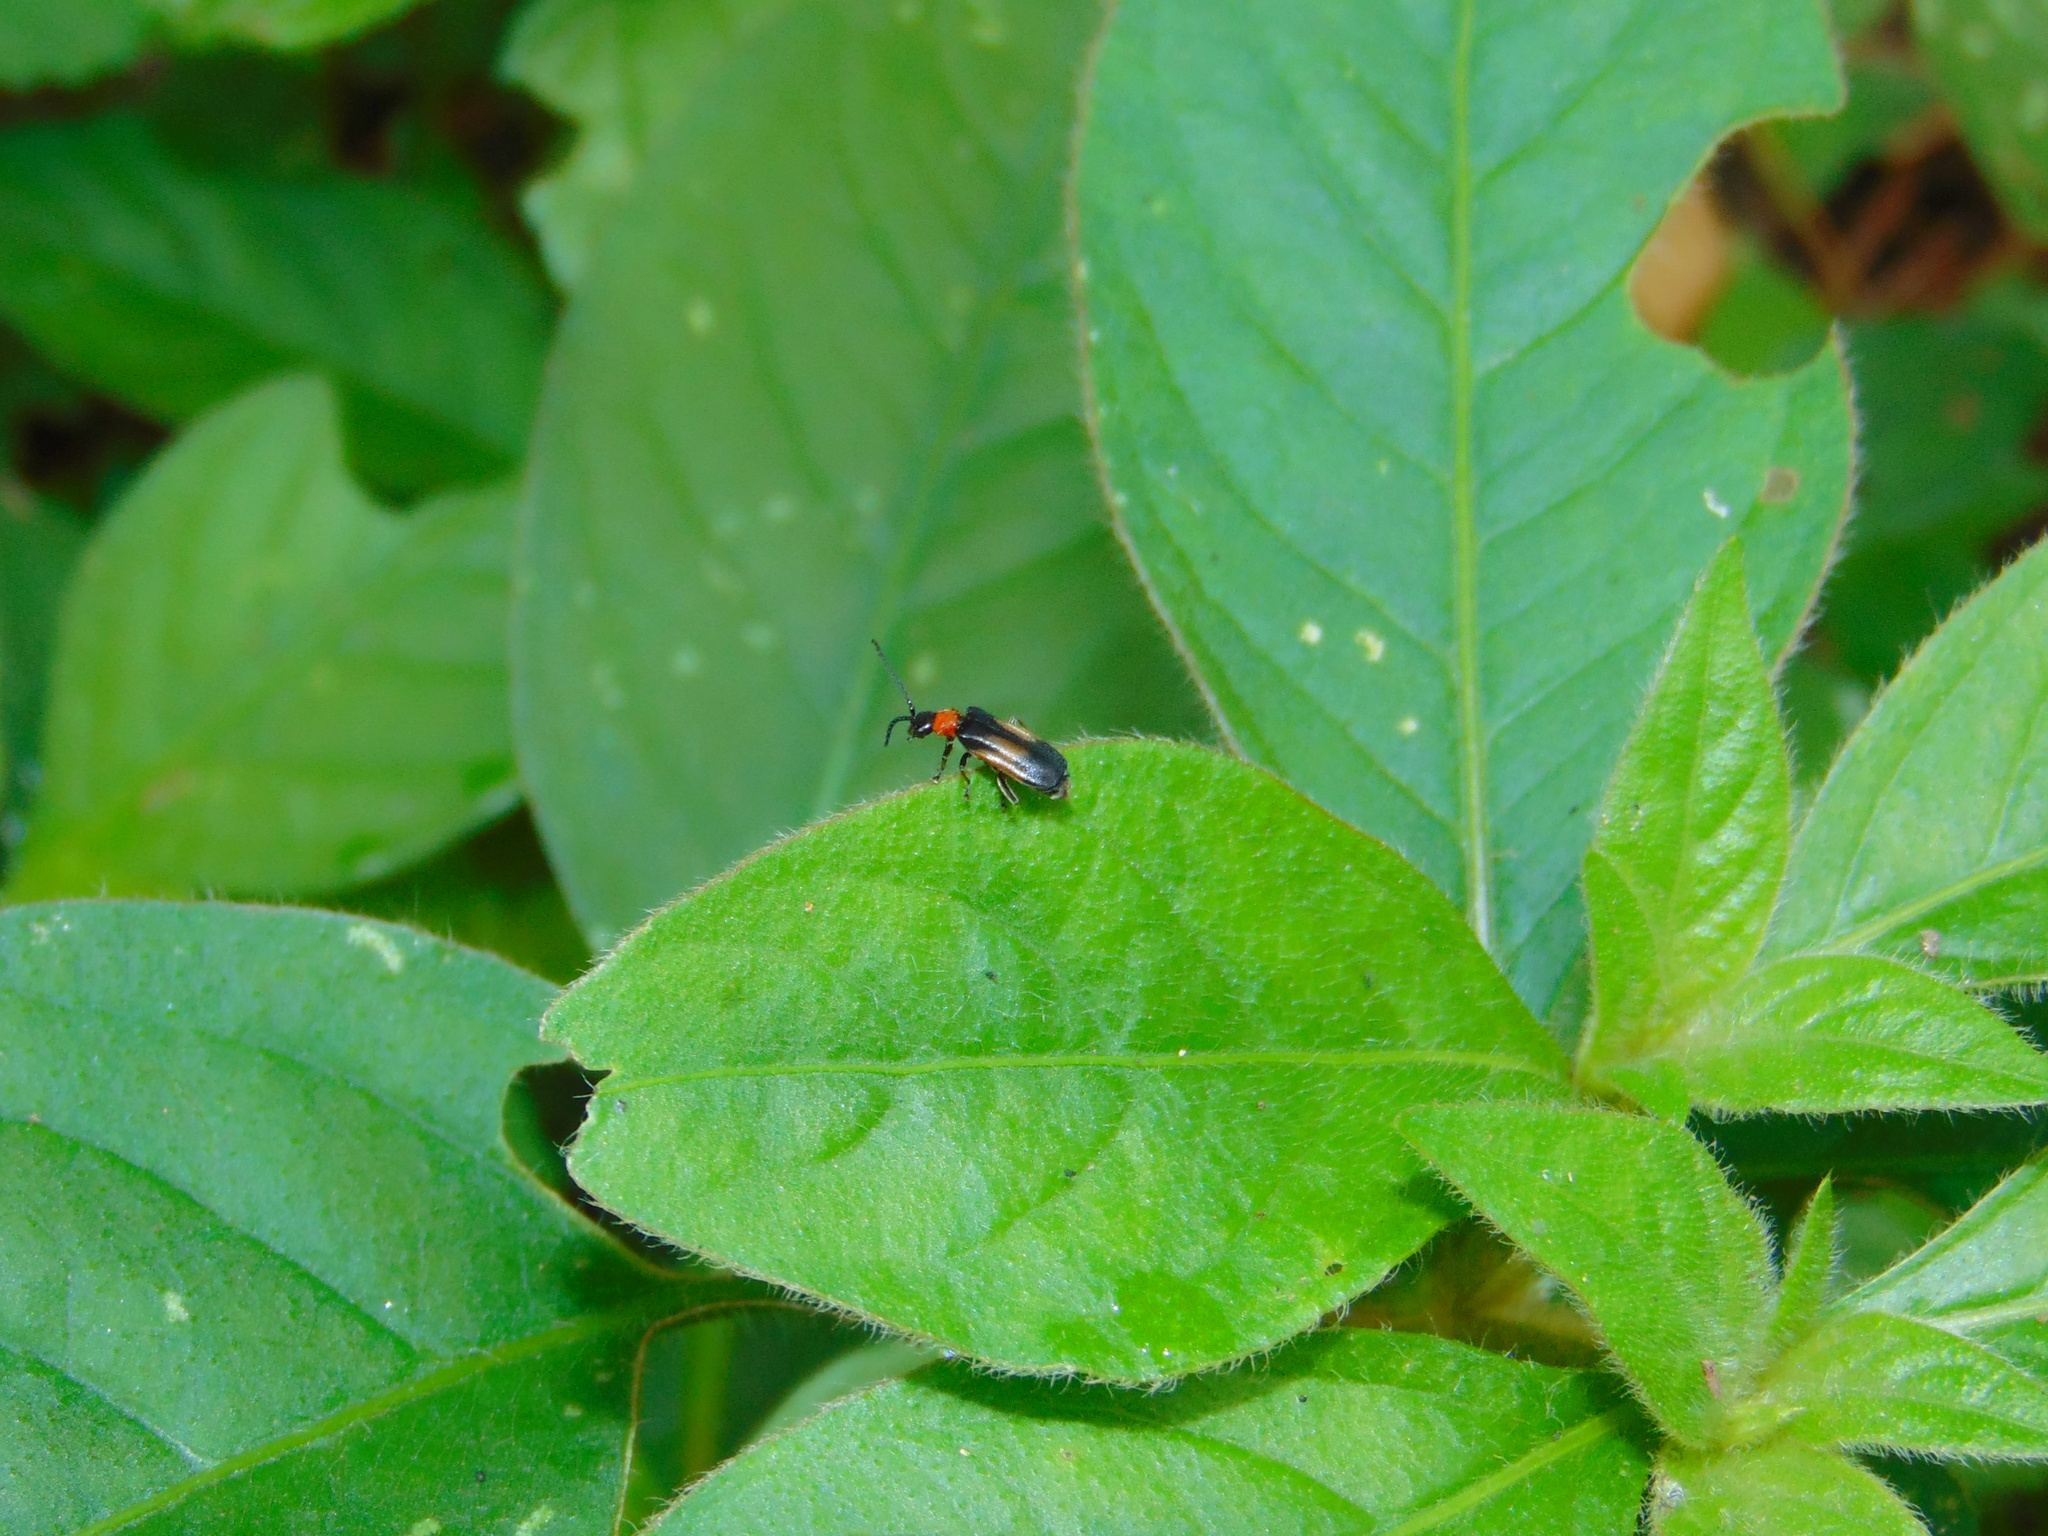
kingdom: Animalia
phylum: Arthropoda
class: Insecta
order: Coleoptera
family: Cantharidae
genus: Silis
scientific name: Silis
